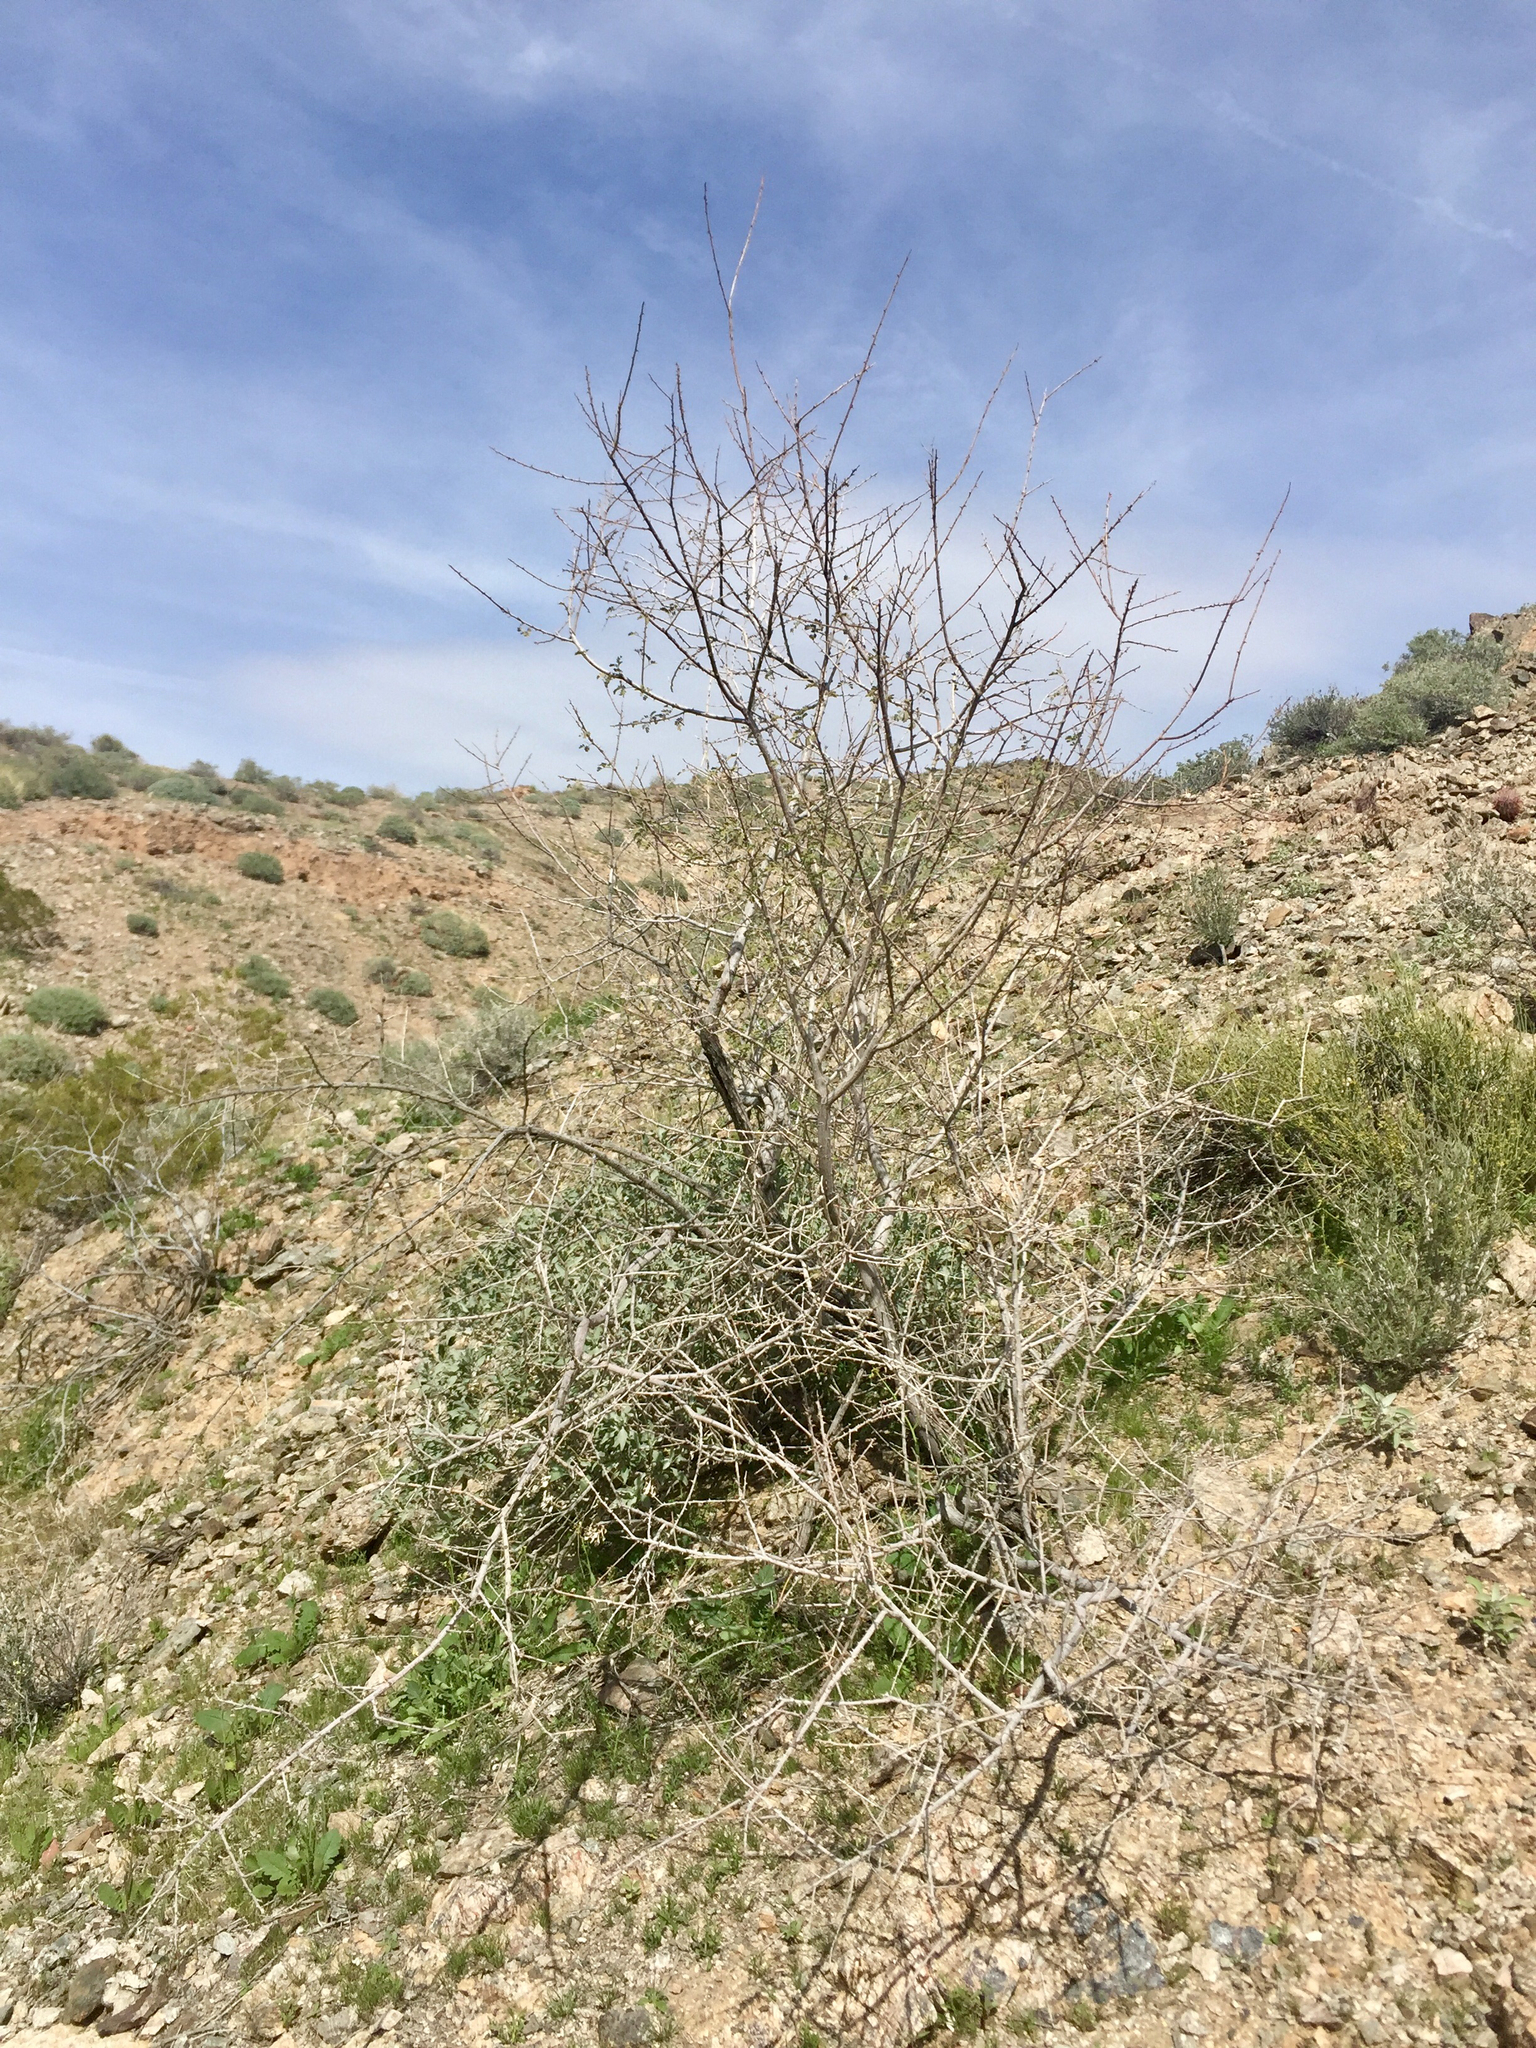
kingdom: Plantae
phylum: Tracheophyta
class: Magnoliopsida
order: Fabales
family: Fabaceae
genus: Senegalia
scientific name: Senegalia greggii
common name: Texas-mimosa
